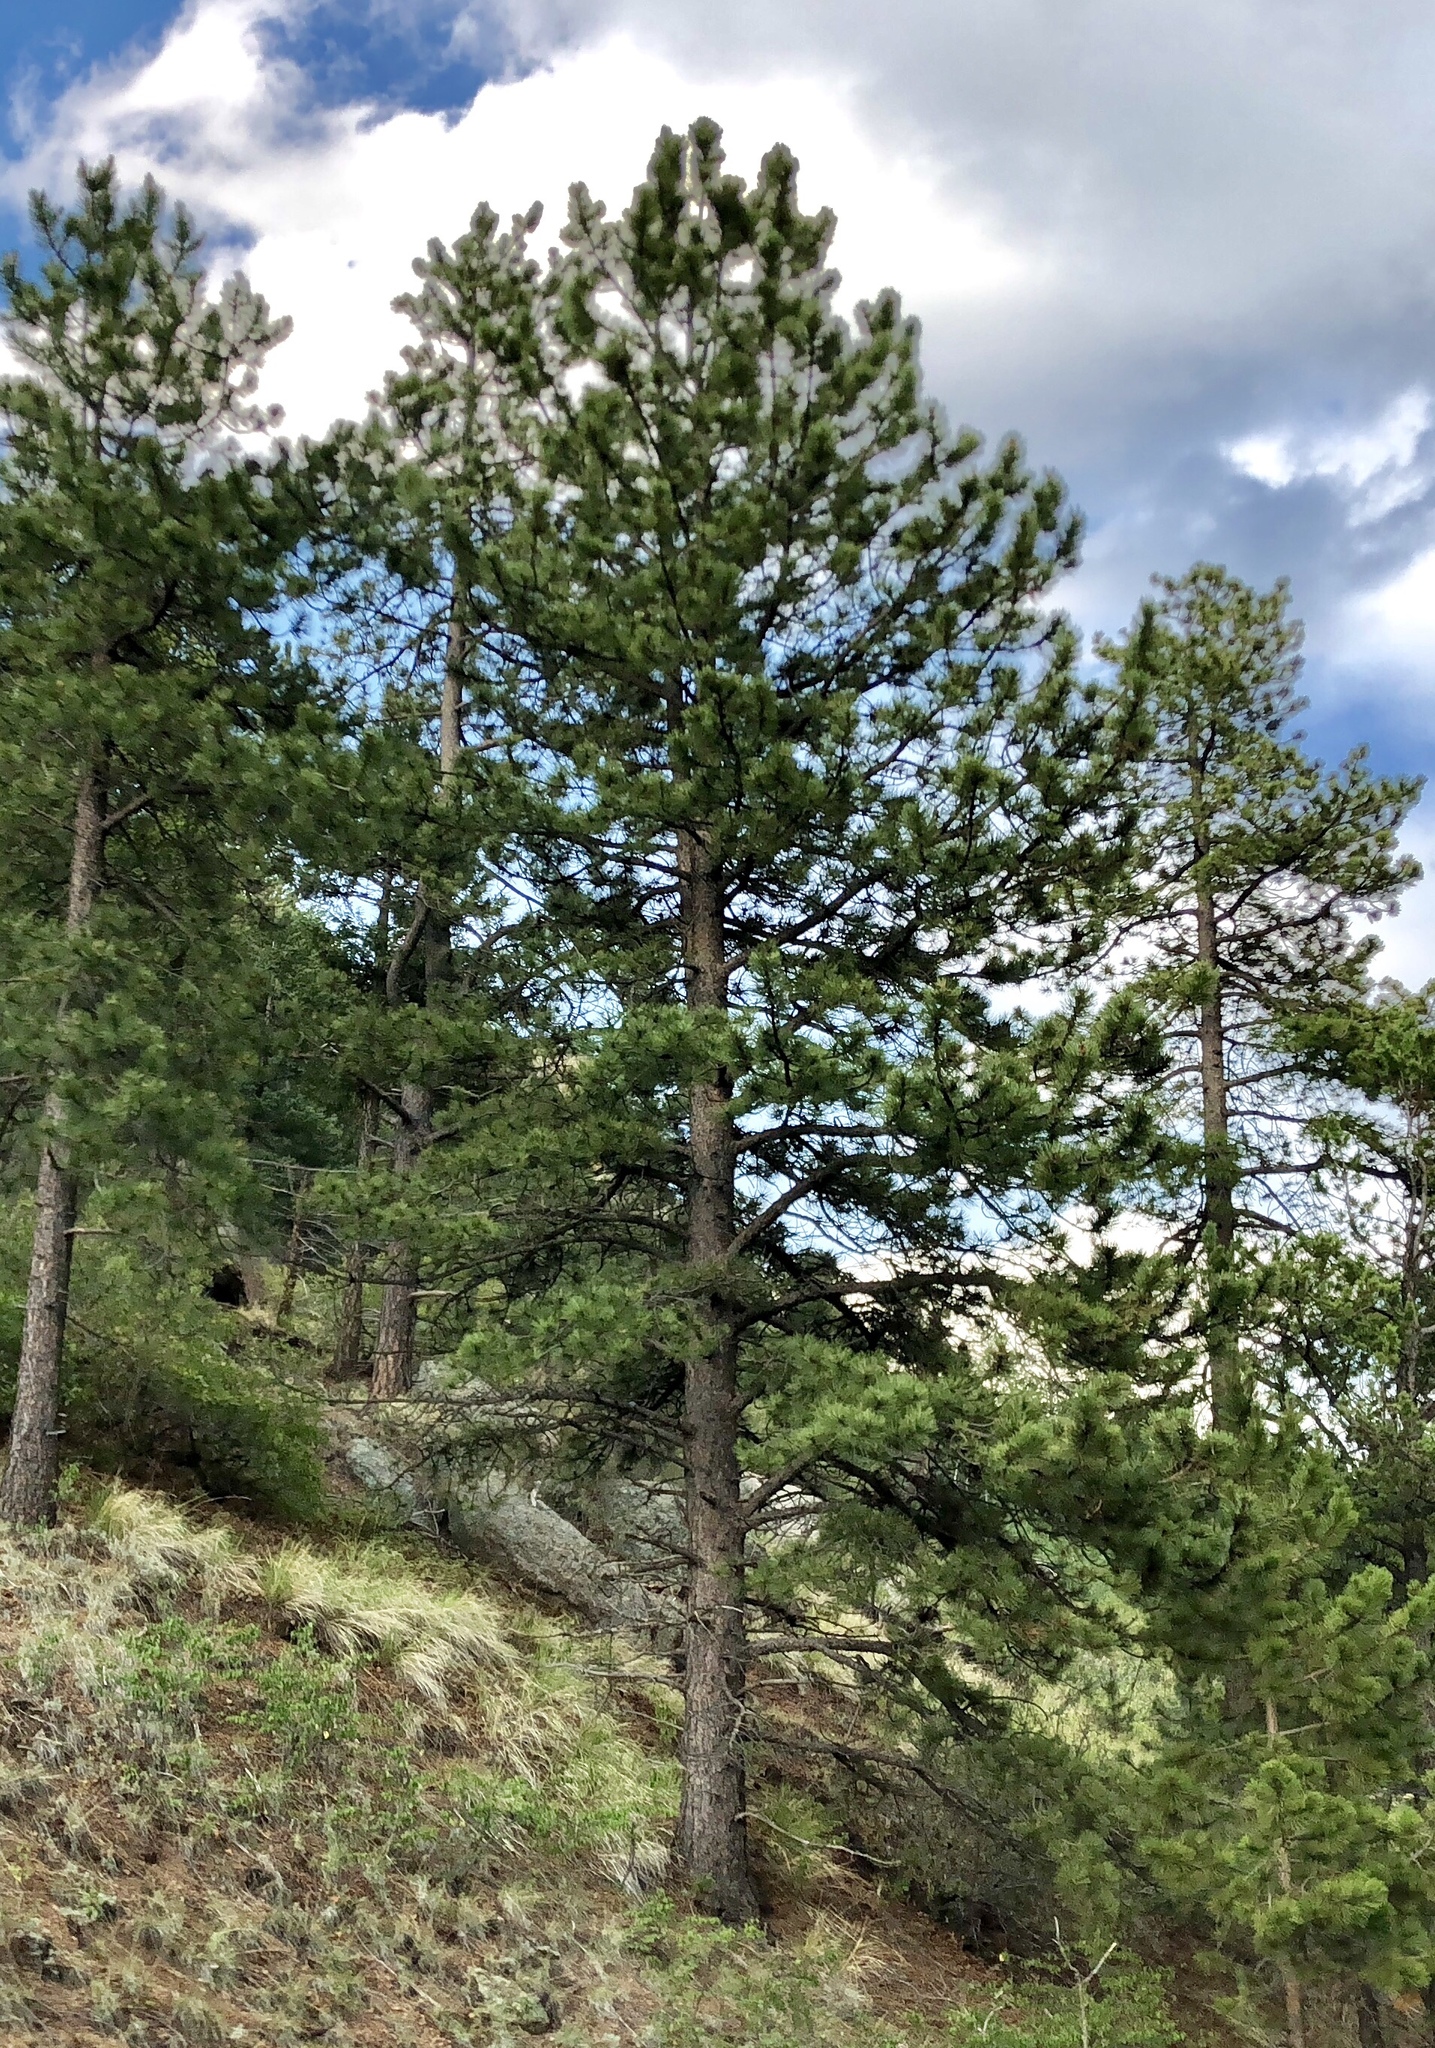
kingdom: Plantae
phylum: Tracheophyta
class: Pinopsida
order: Pinales
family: Pinaceae
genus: Pinus
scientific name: Pinus ponderosa
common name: Western yellow-pine
